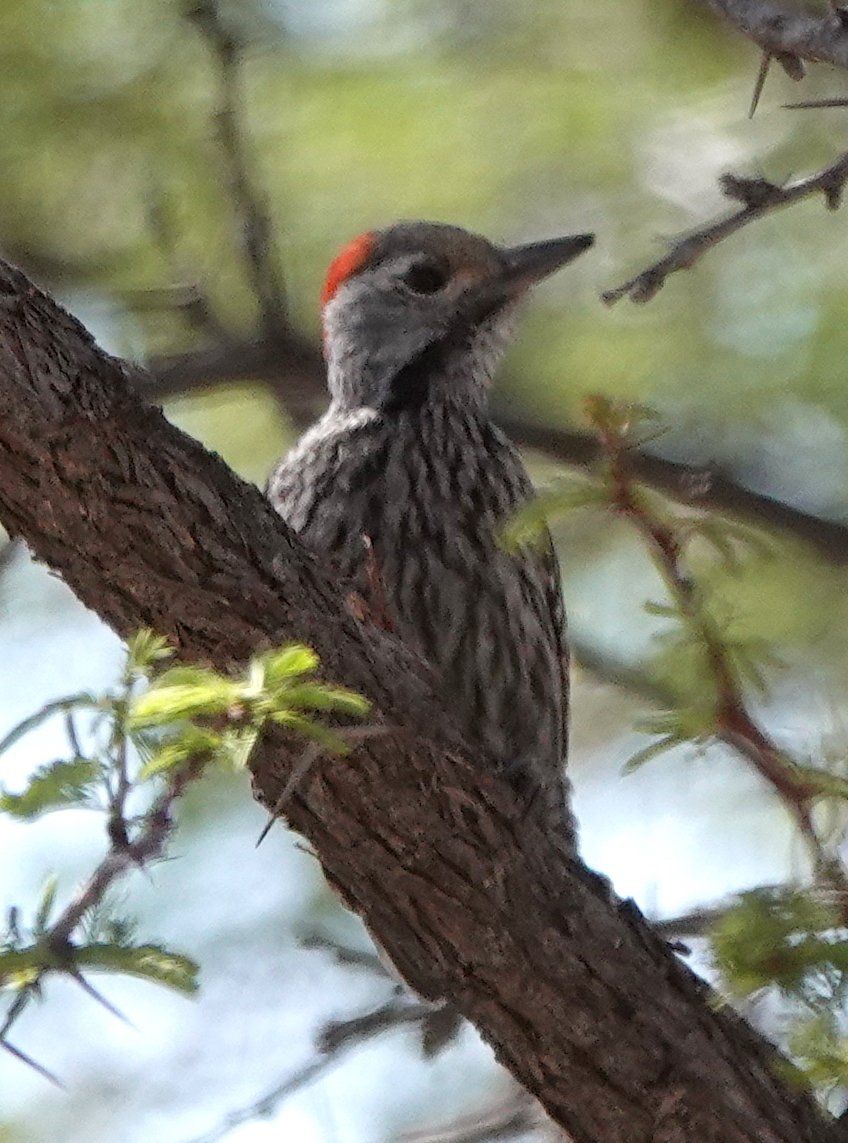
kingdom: Animalia
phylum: Chordata
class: Aves
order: Piciformes
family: Picidae
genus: Dendropicos
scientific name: Dendropicos fuscescens
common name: Cardinal woodpecker
